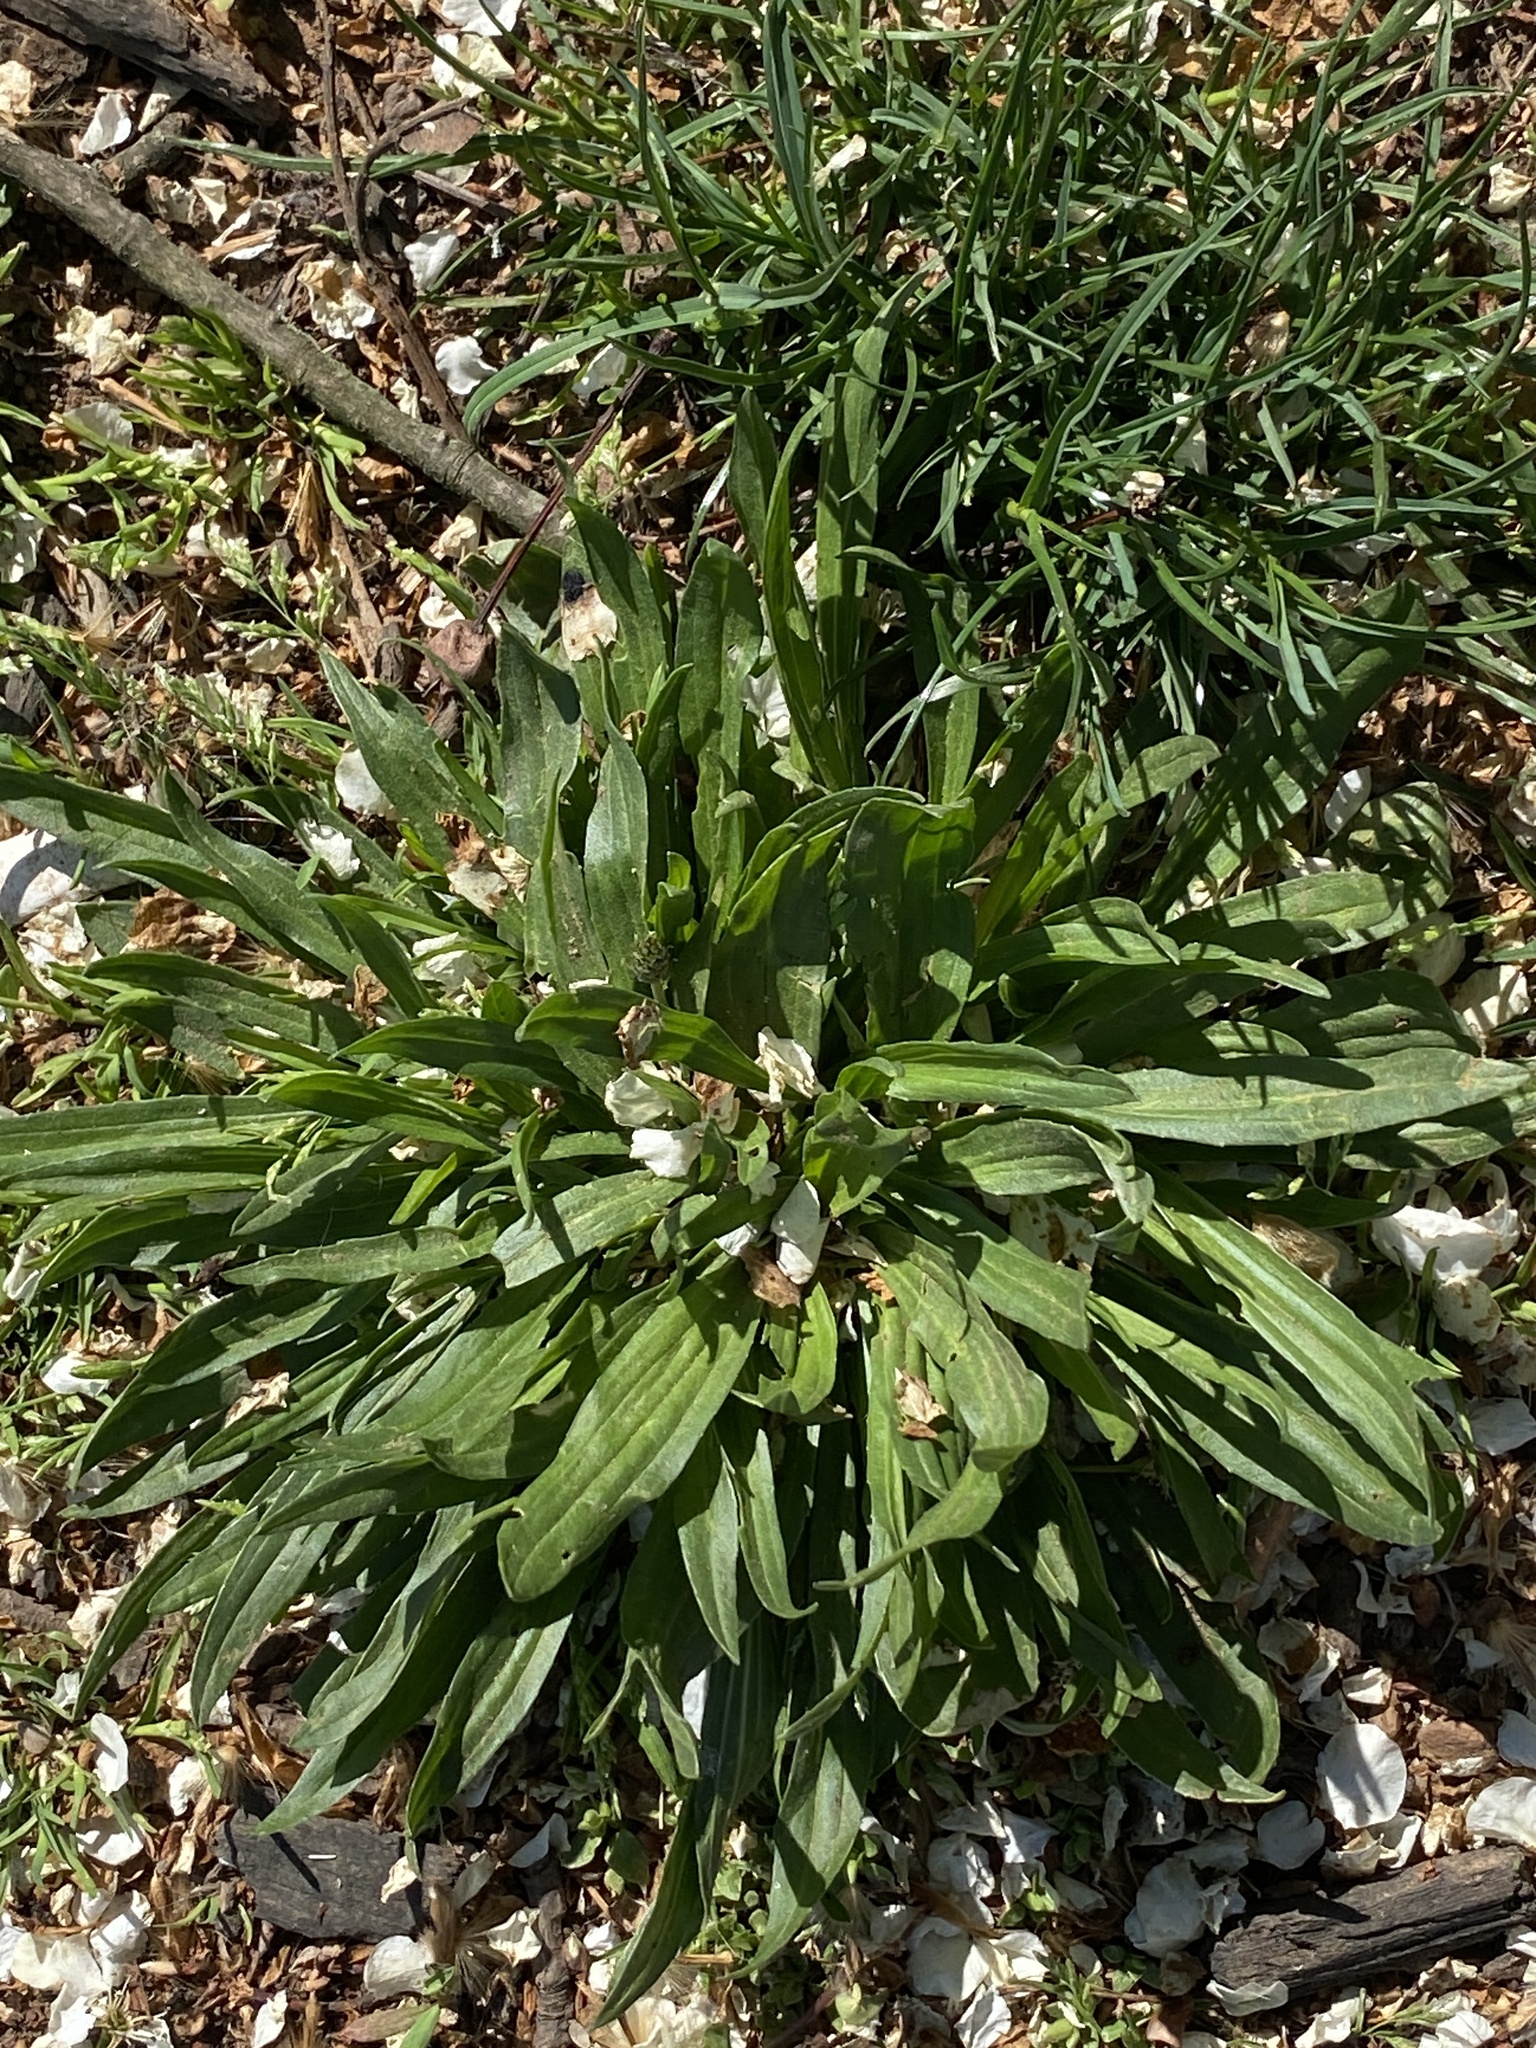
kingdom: Plantae
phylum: Tracheophyta
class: Magnoliopsida
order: Lamiales
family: Plantaginaceae
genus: Plantago
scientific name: Plantago lanceolata
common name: Ribwort plantain
